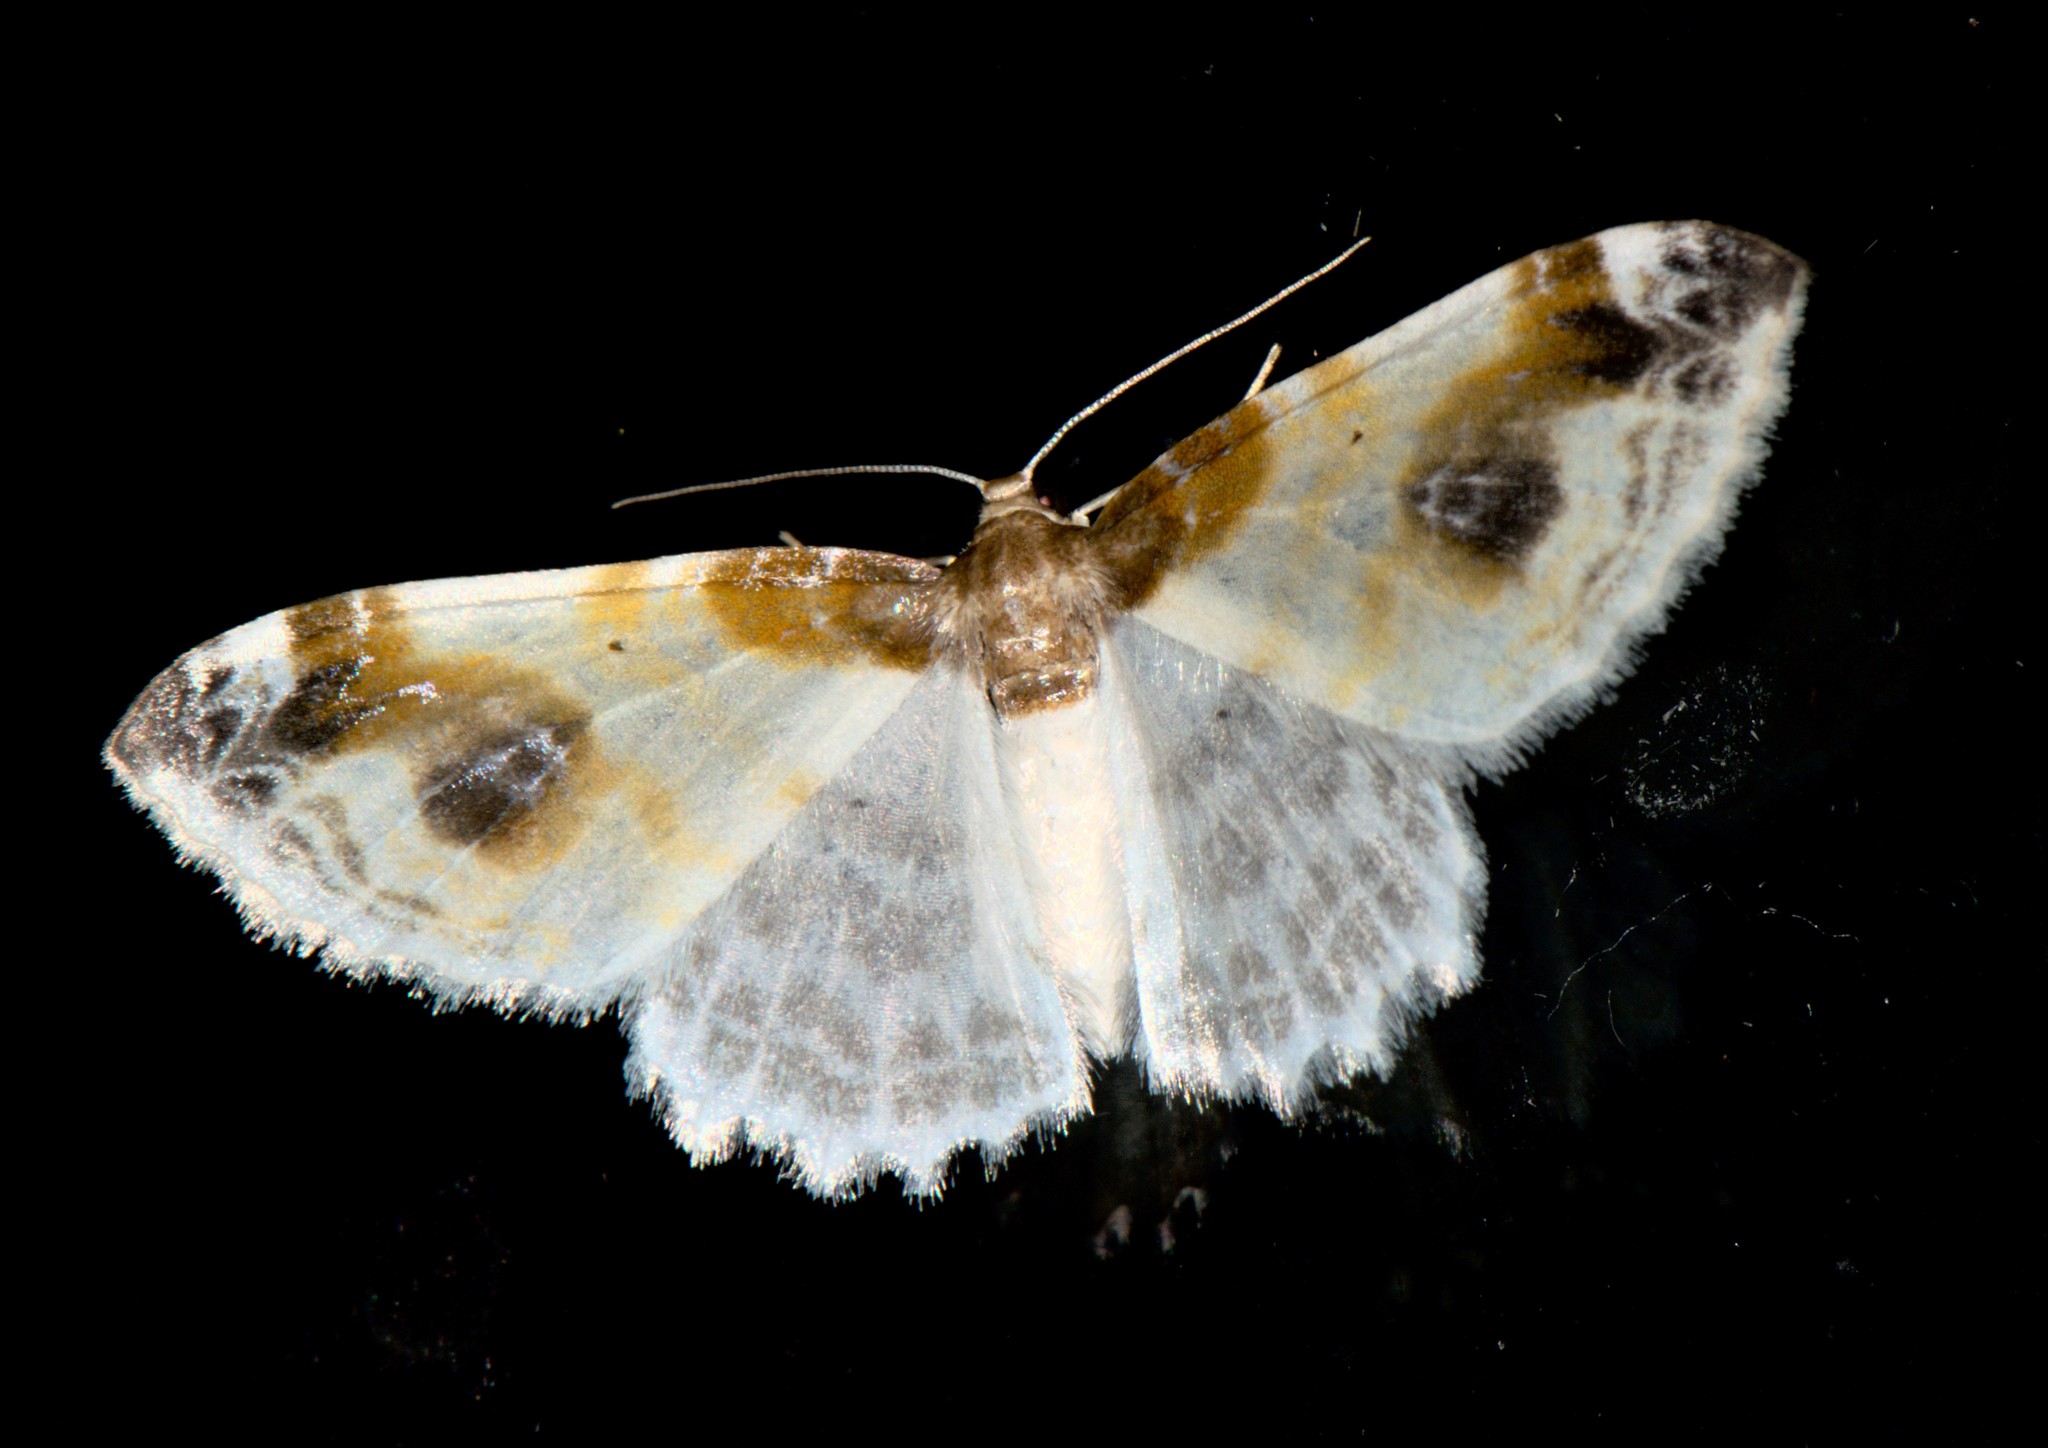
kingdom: Animalia
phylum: Arthropoda
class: Insecta
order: Lepidoptera
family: Geometridae
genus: Agnibesa
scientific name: Agnibesa pictaria
